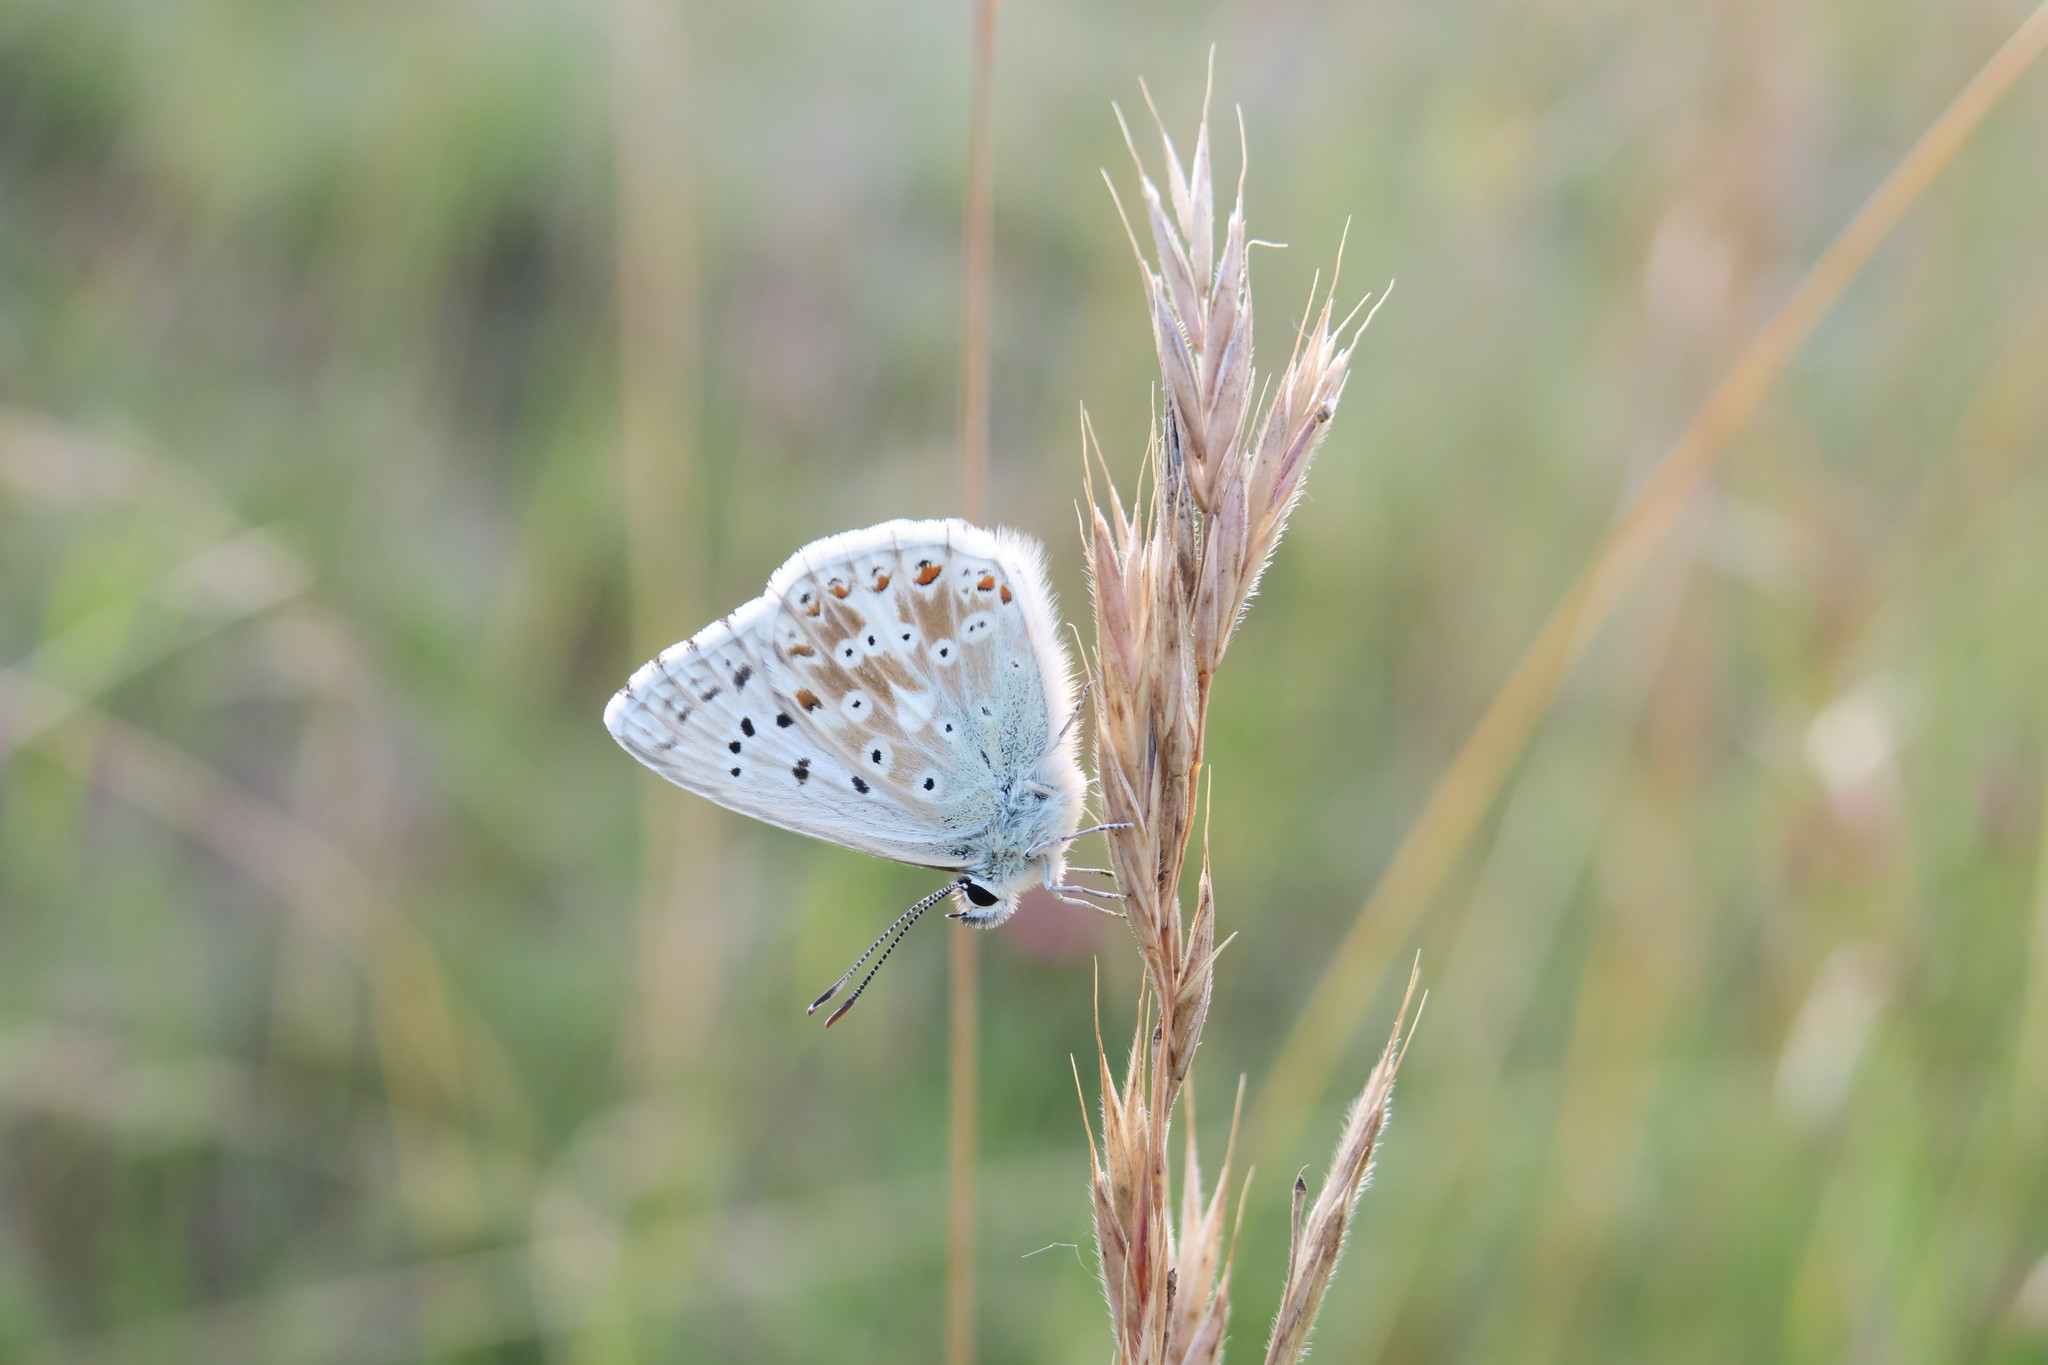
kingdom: Animalia
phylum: Arthropoda
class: Insecta
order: Lepidoptera
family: Lycaenidae
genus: Lysandra
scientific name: Lysandra coridon
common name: Chalkhill blue
